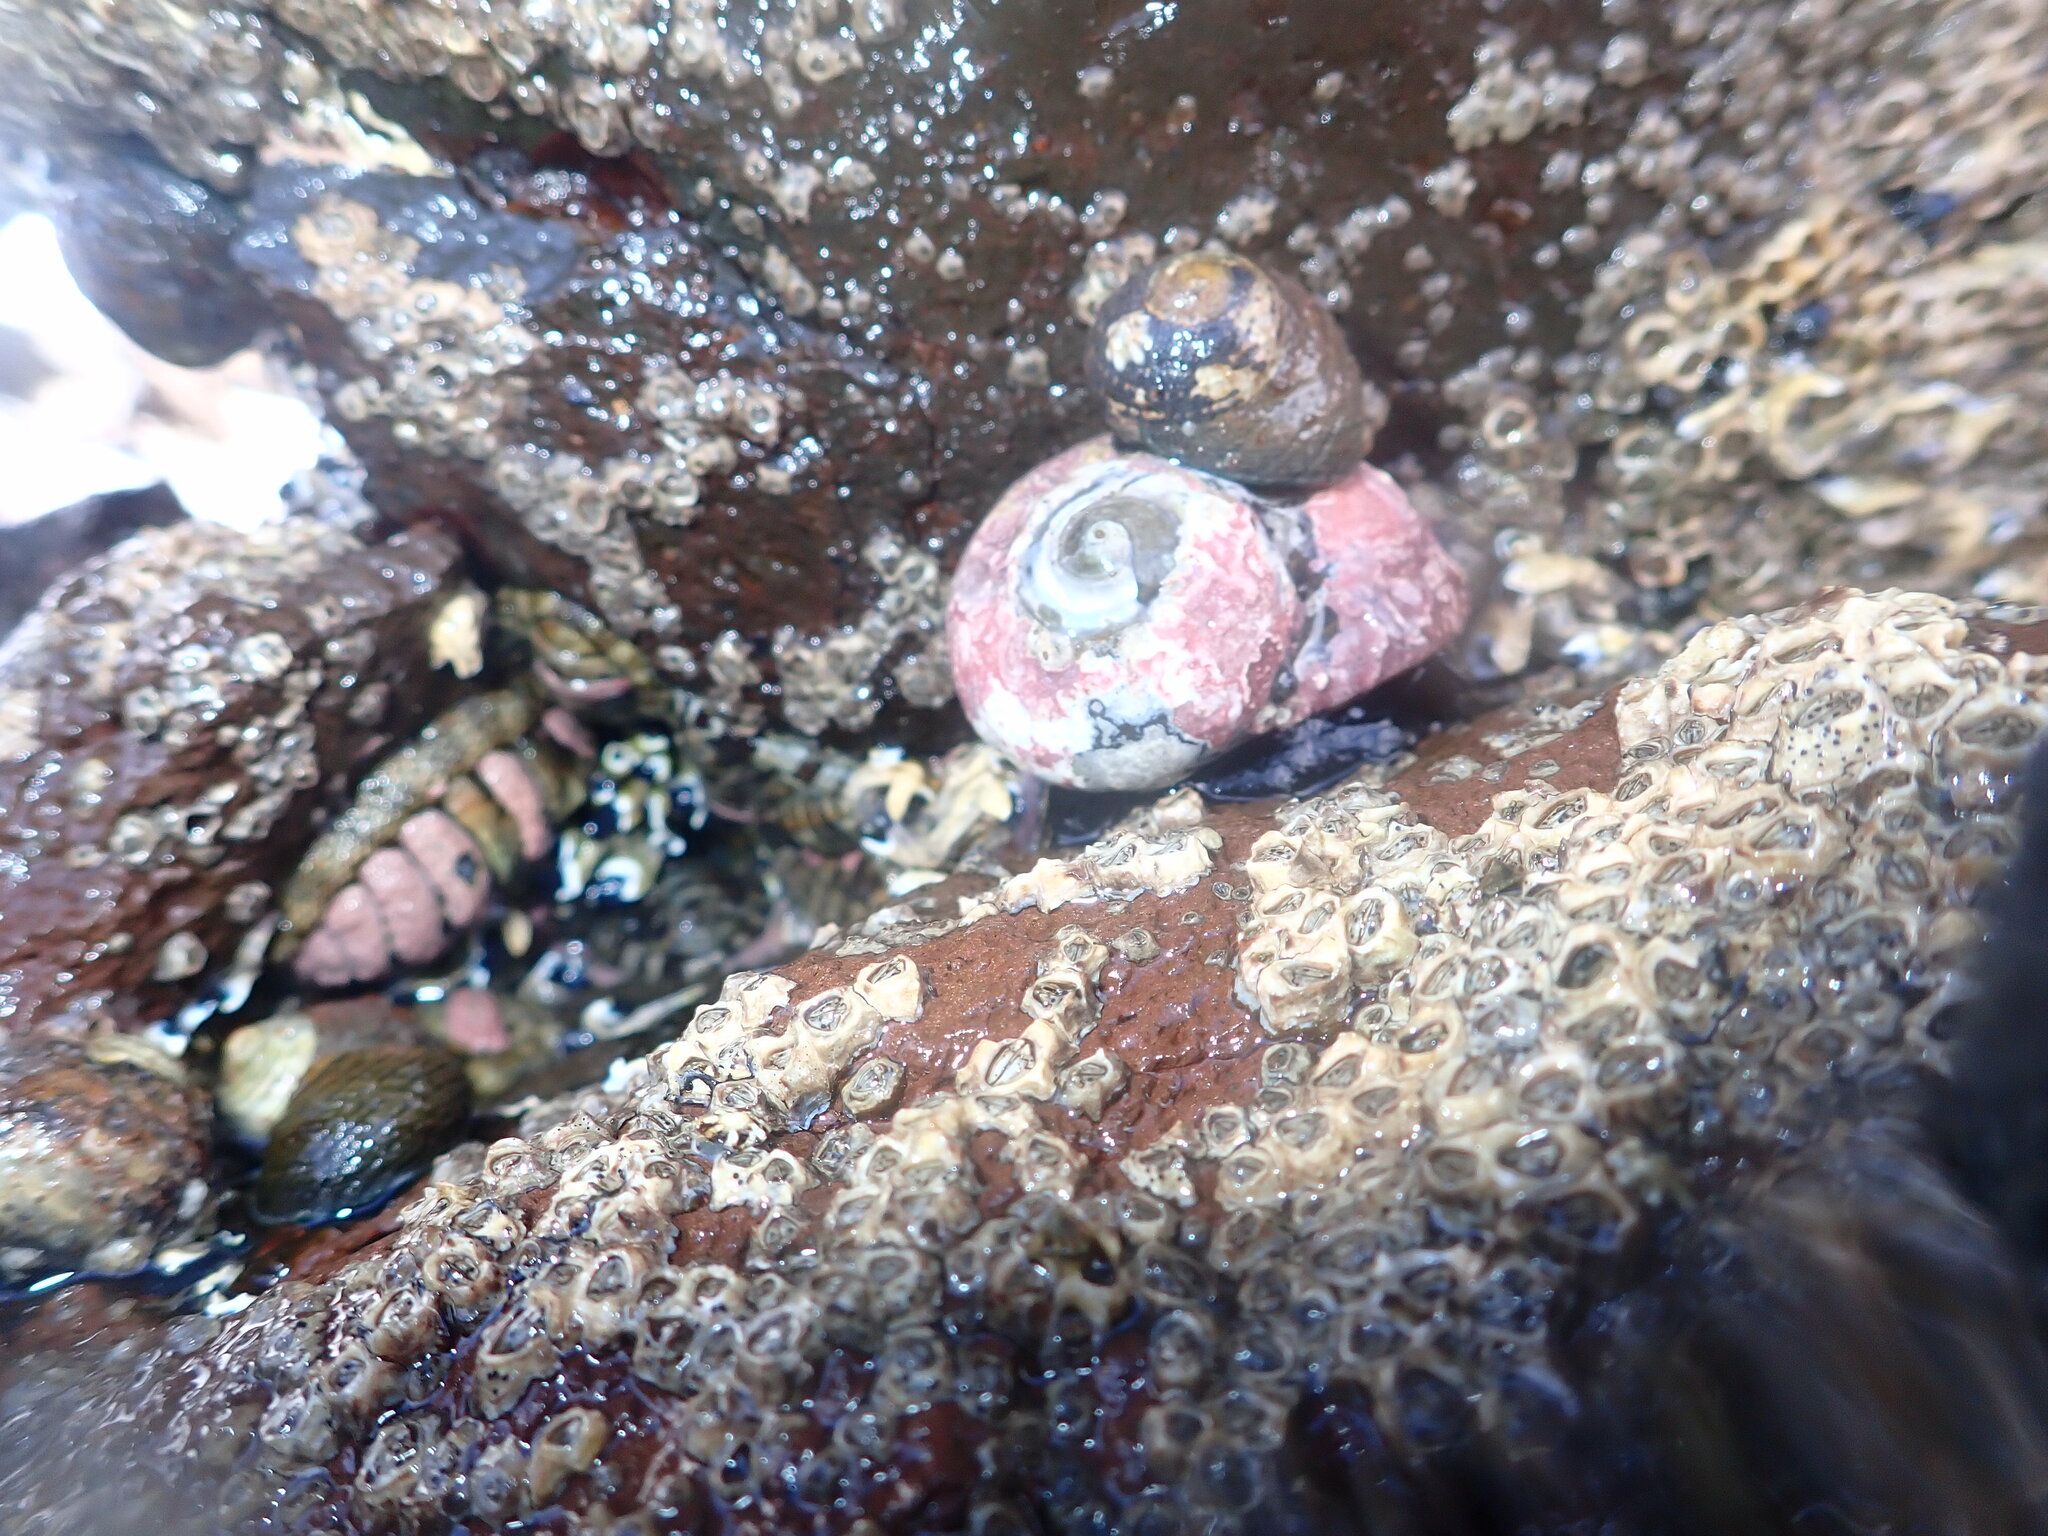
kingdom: Animalia
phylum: Mollusca
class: Polyplacophora
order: Chitonida
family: Chitonidae
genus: Sypharochiton
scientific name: Sypharochiton pelliserpentis
